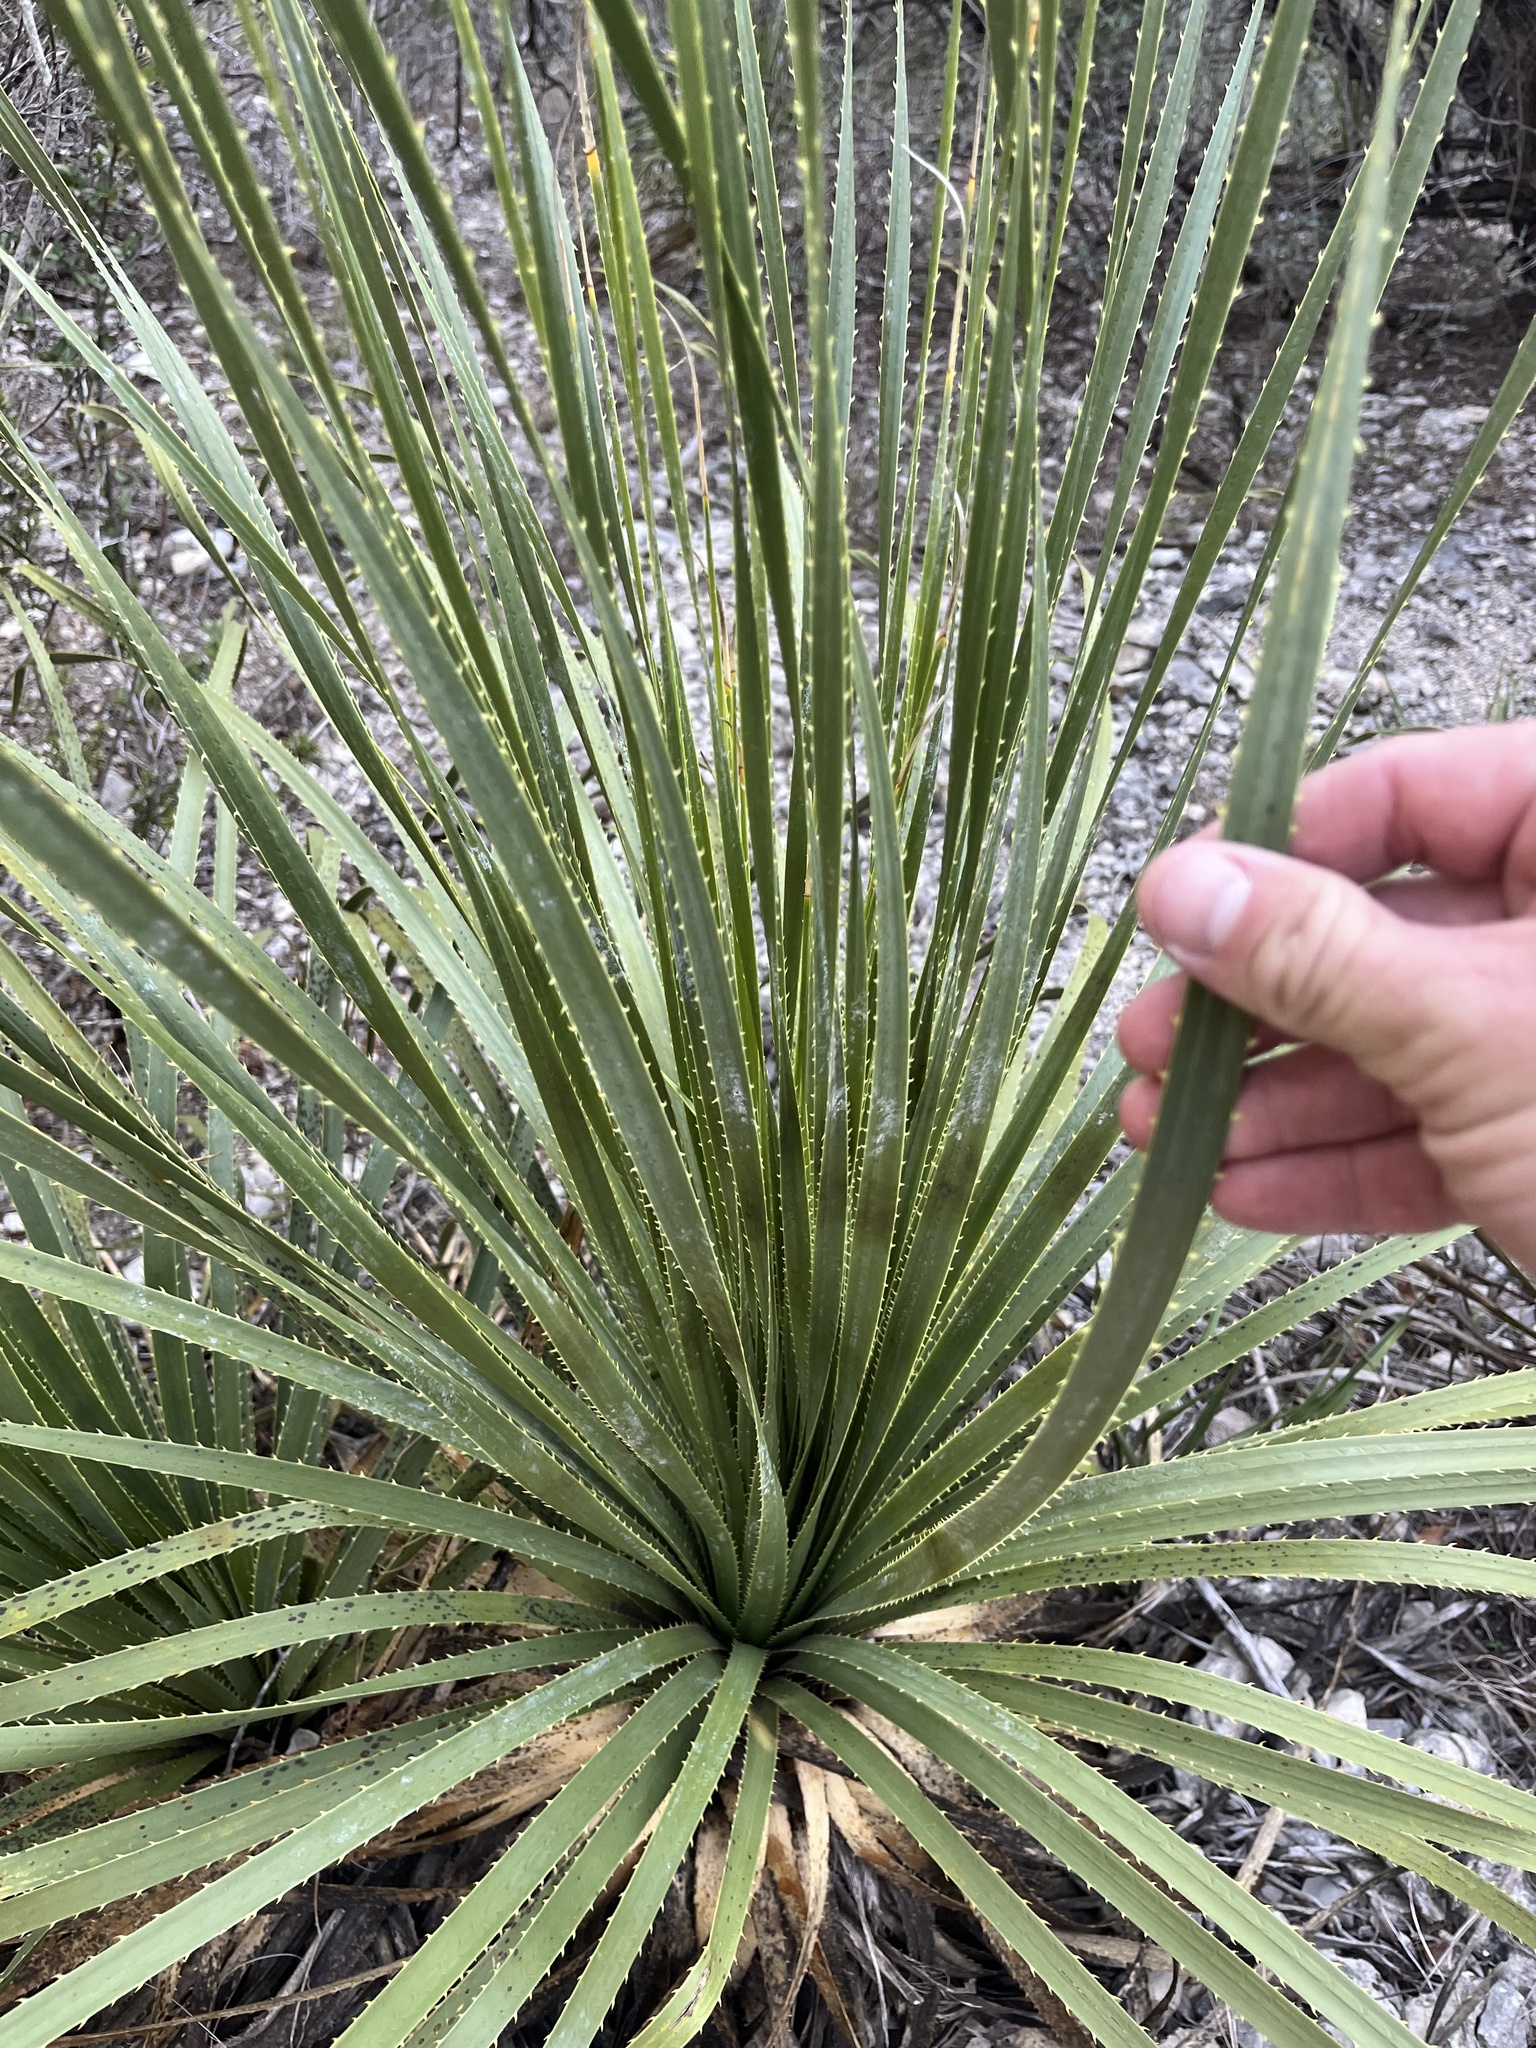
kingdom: Plantae
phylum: Tracheophyta
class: Liliopsida
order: Asparagales
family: Asparagaceae
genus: Dasylirion
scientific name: Dasylirion texanum
